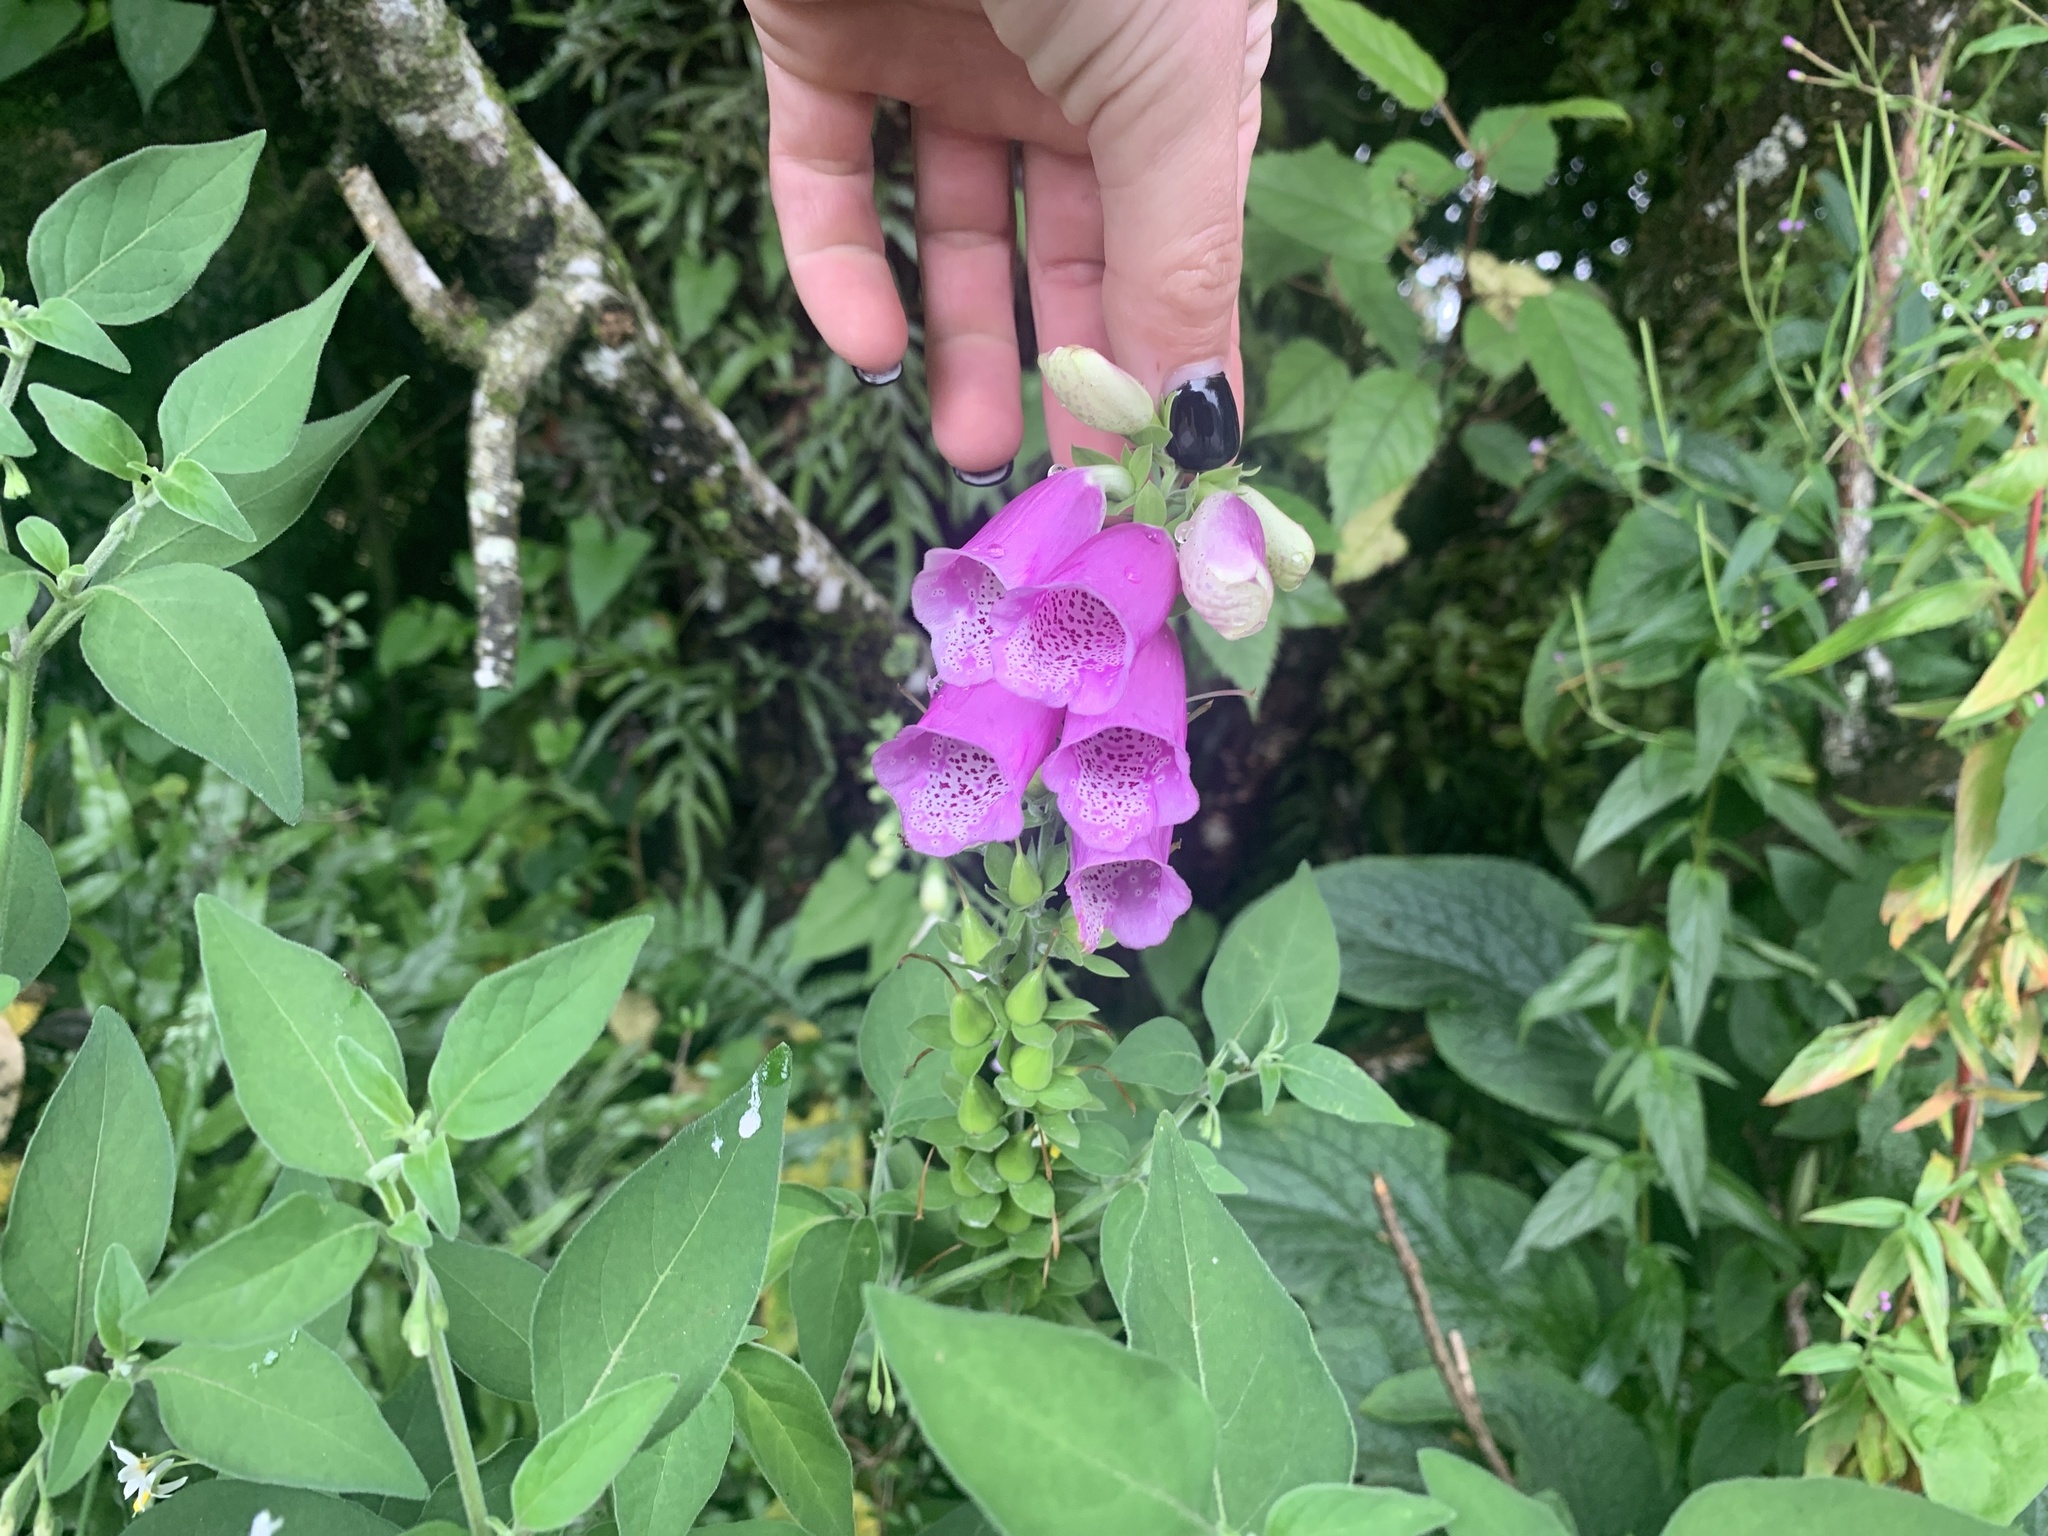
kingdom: Plantae
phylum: Tracheophyta
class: Magnoliopsida
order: Lamiales
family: Plantaginaceae
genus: Digitalis
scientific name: Digitalis purpurea
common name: Foxglove
